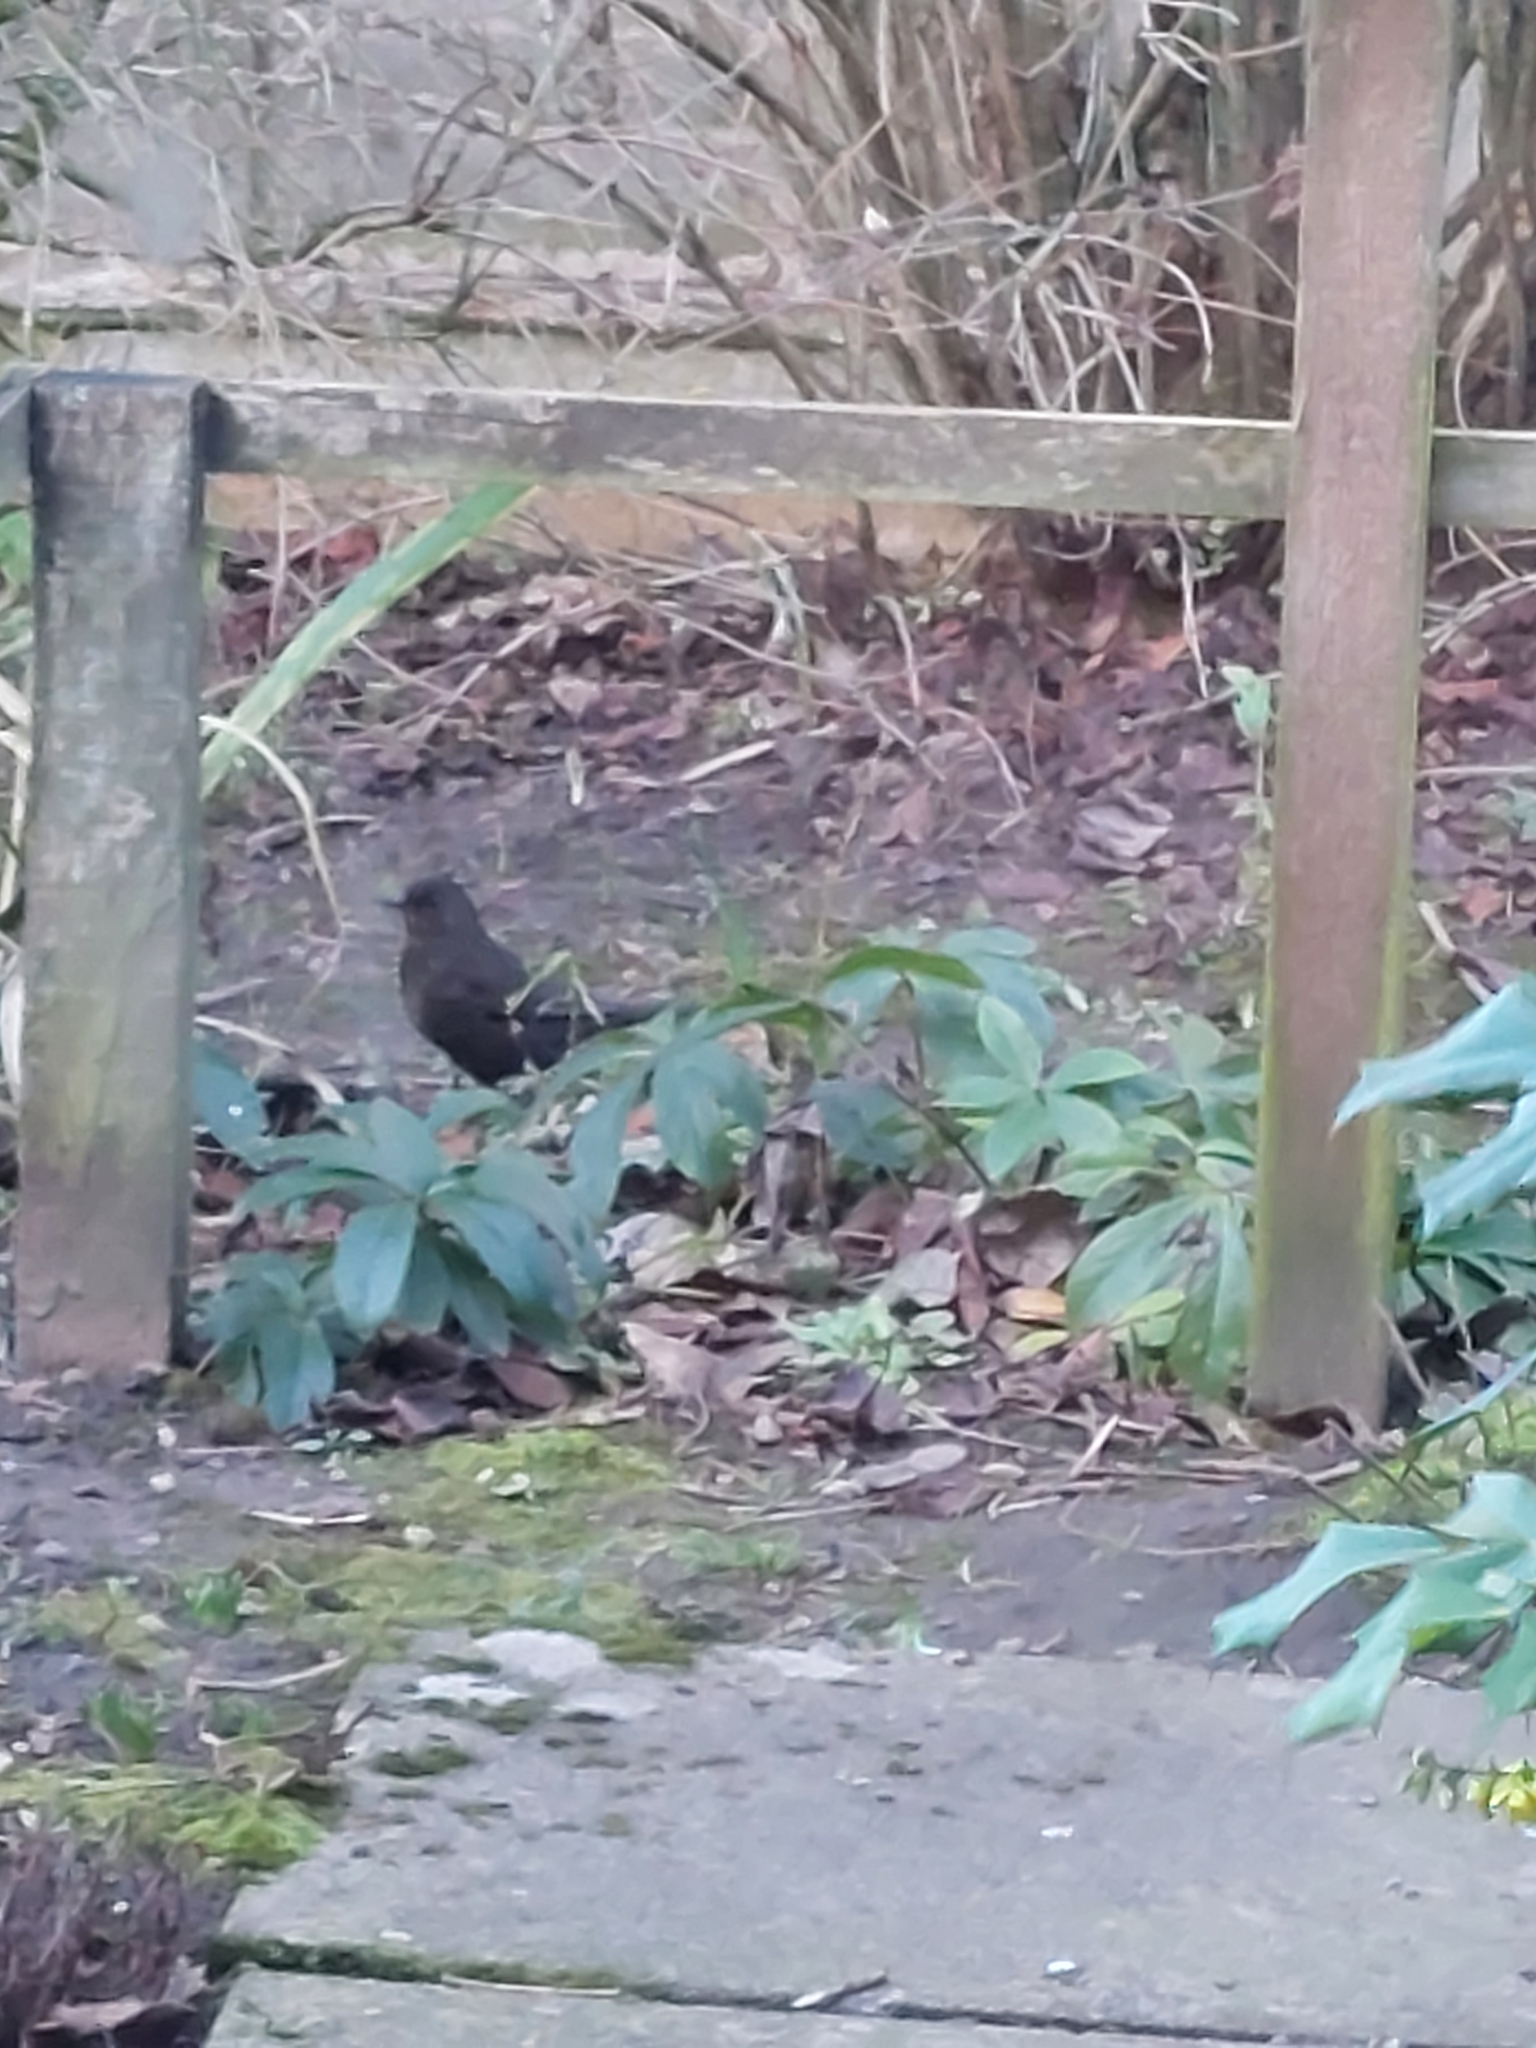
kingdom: Animalia
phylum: Chordata
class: Aves
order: Passeriformes
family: Turdidae
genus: Turdus
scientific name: Turdus merula
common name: Common blackbird
